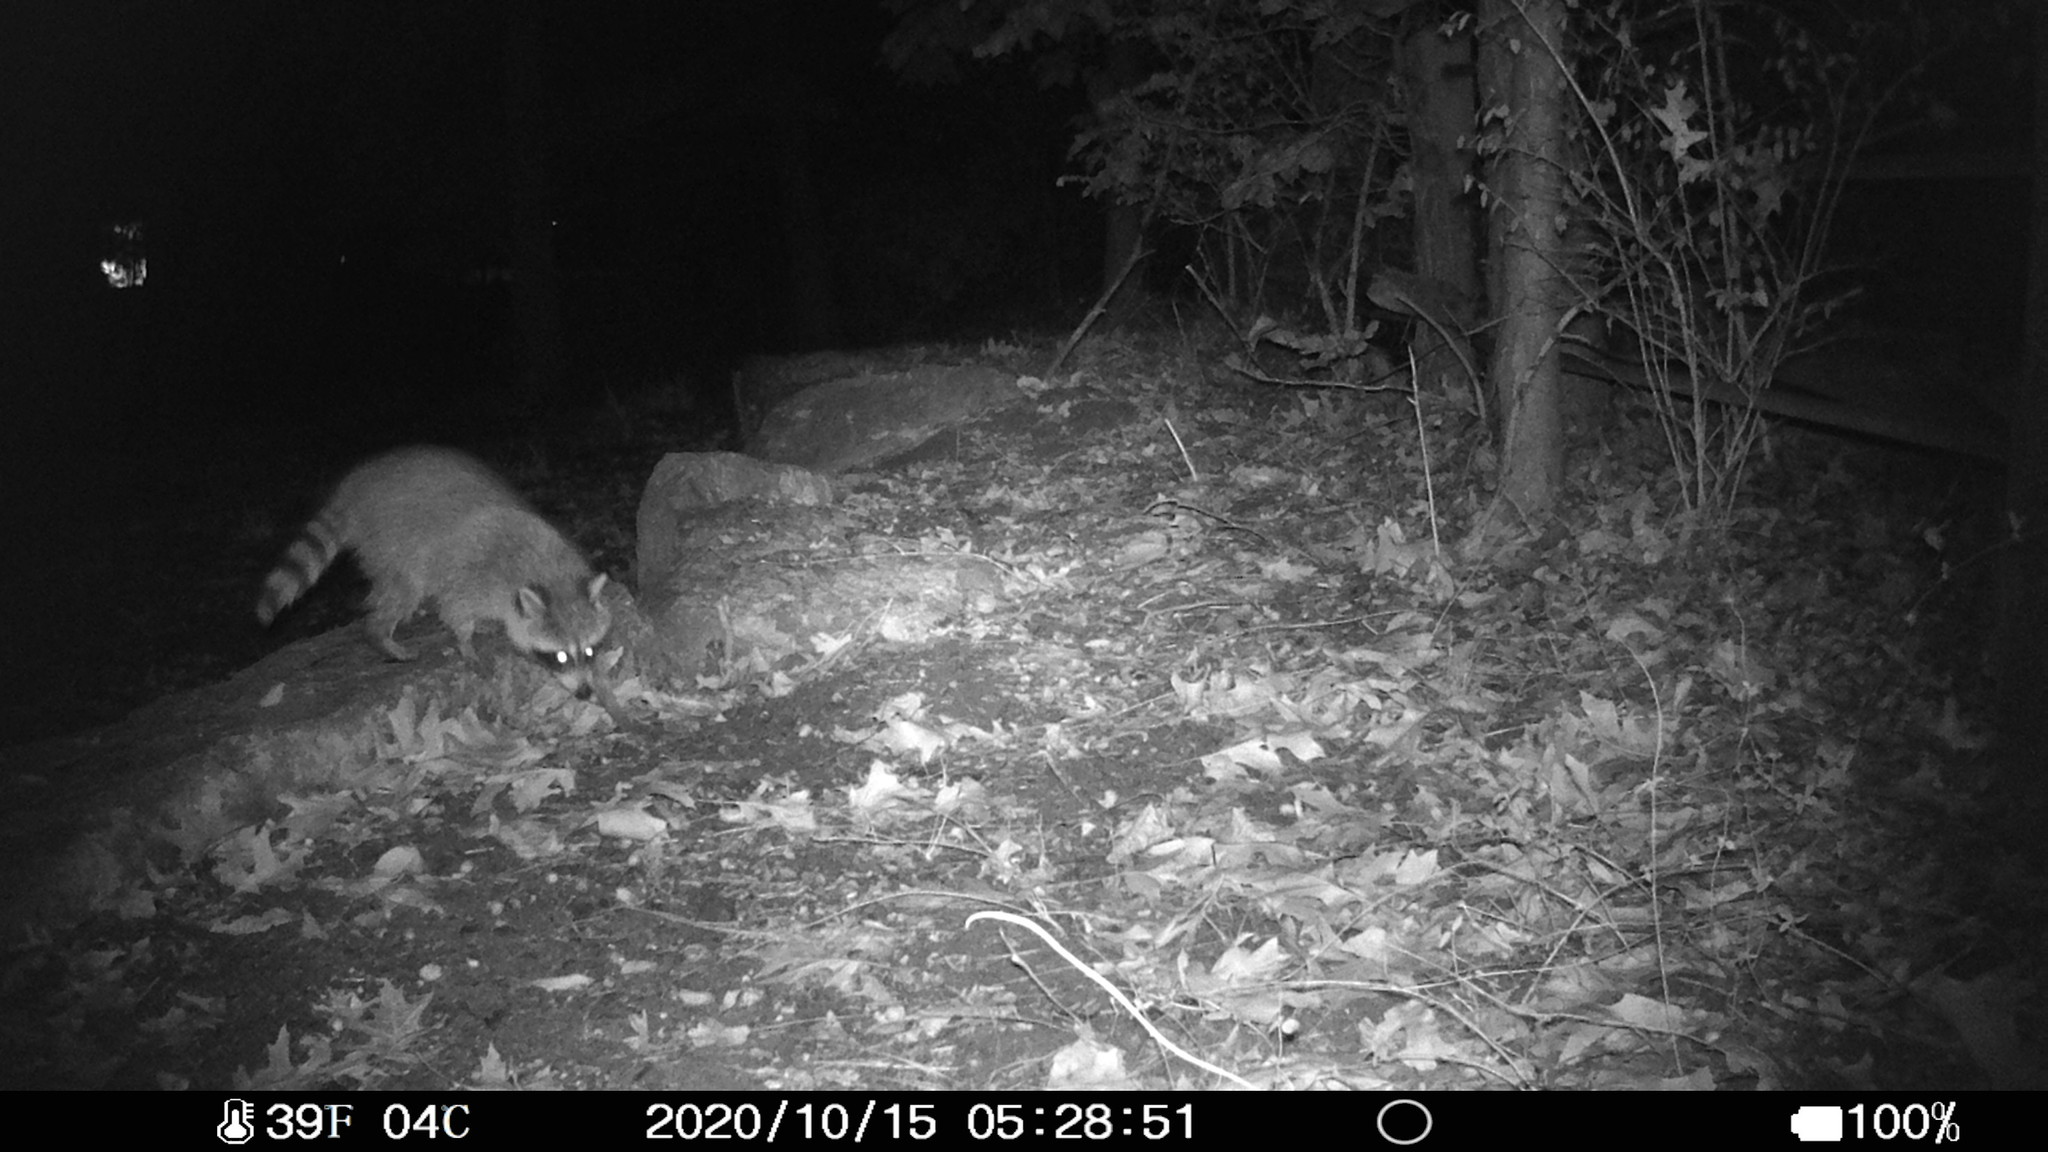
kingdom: Animalia
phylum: Chordata
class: Mammalia
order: Carnivora
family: Procyonidae
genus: Procyon
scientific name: Procyon lotor
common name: Raccoon
